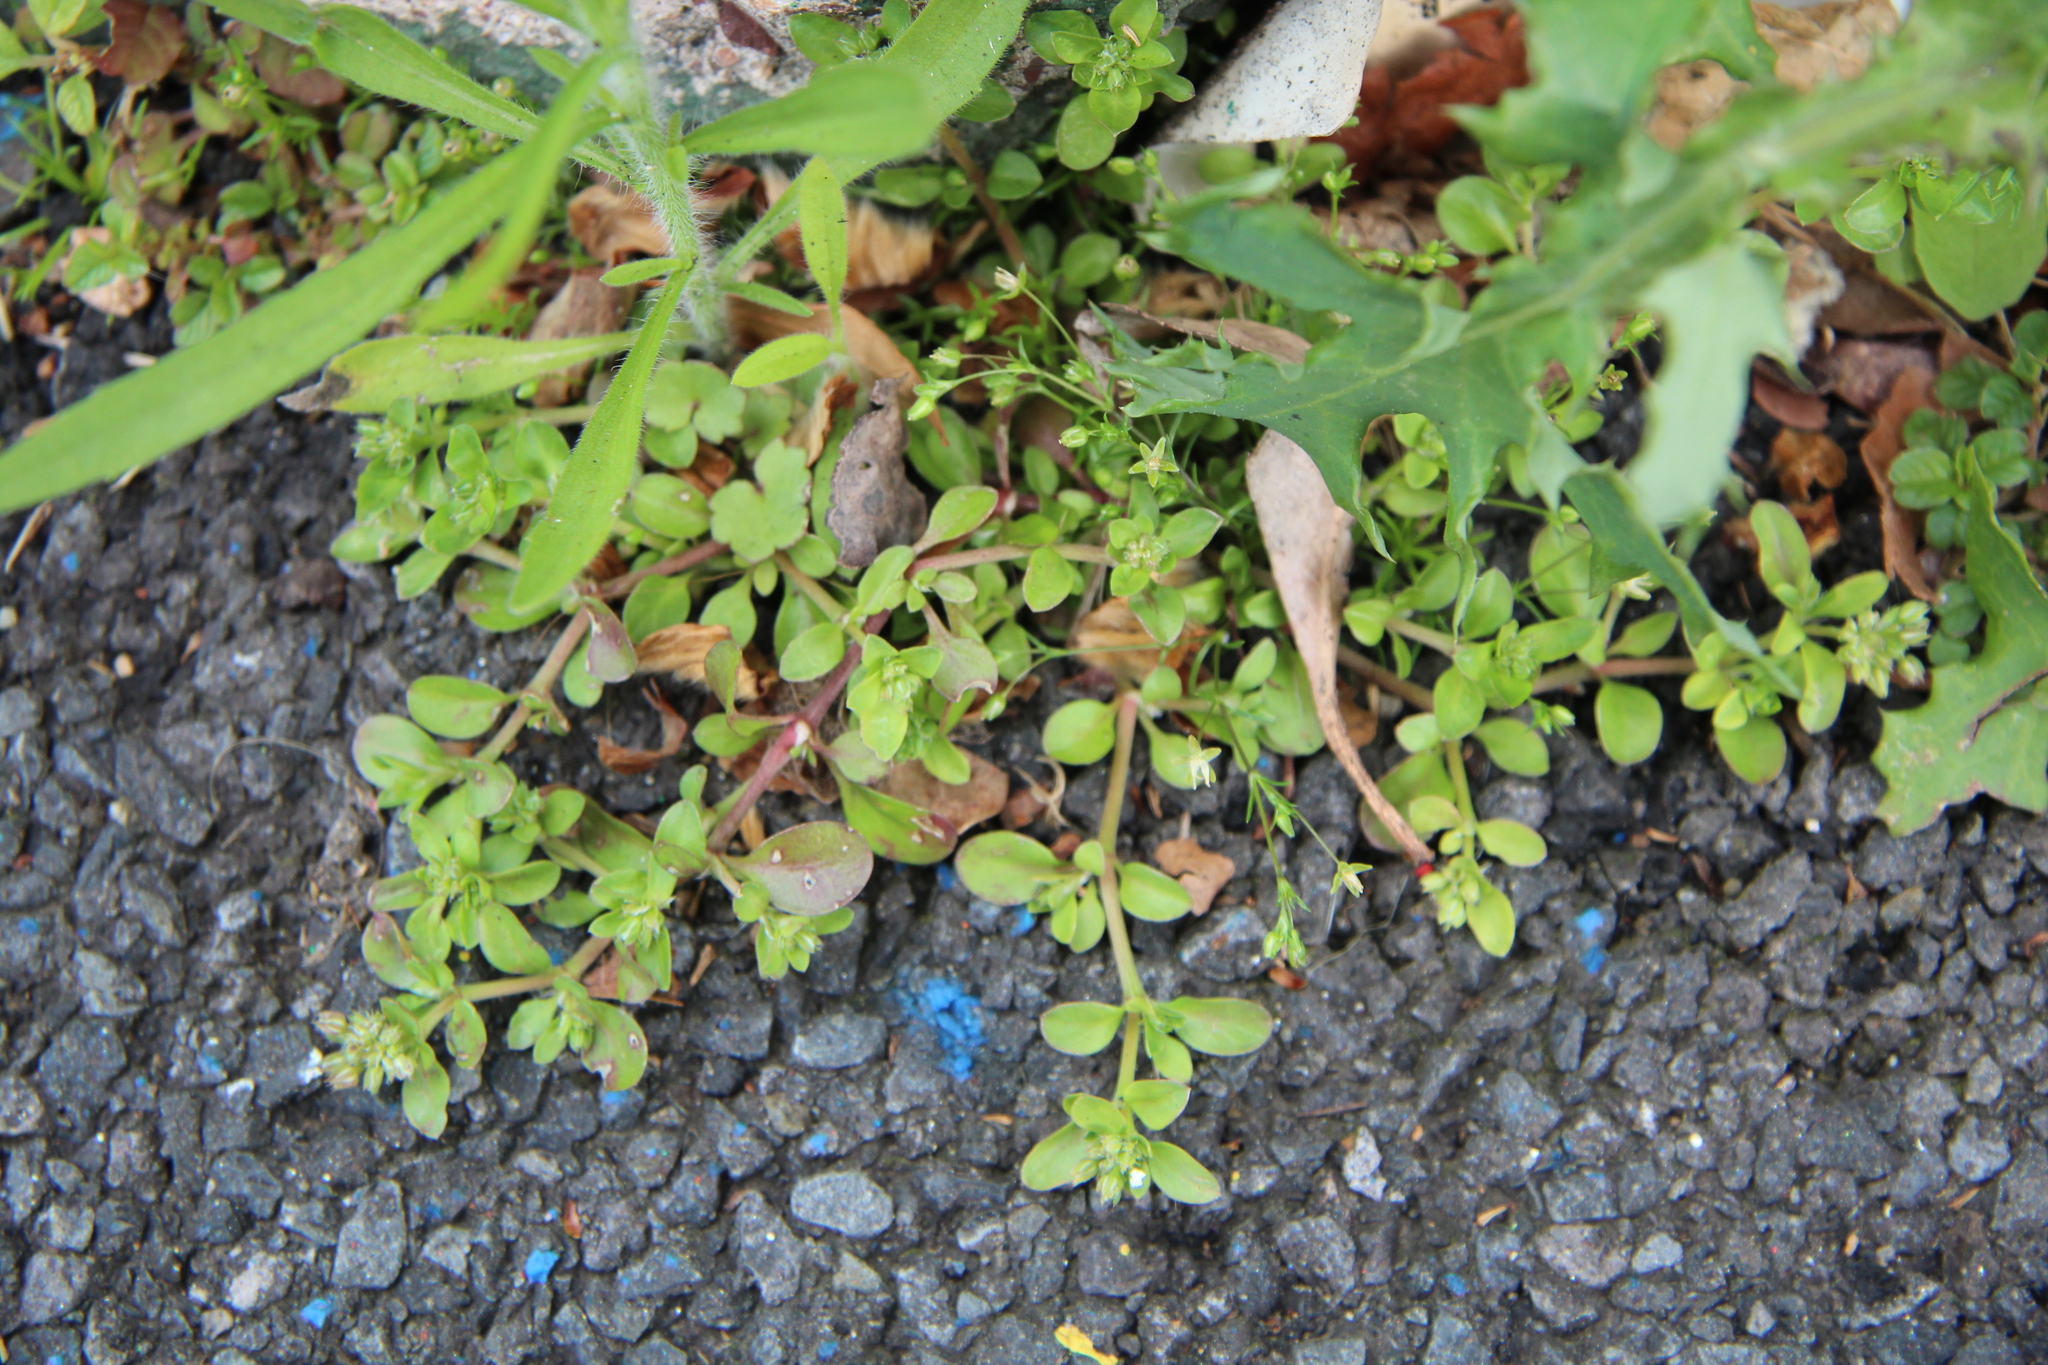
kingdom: Plantae
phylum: Tracheophyta
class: Magnoliopsida
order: Caryophyllales
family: Caryophyllaceae
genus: Polycarpon
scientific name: Polycarpon tetraphyllum
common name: Four-leaved all-seed
